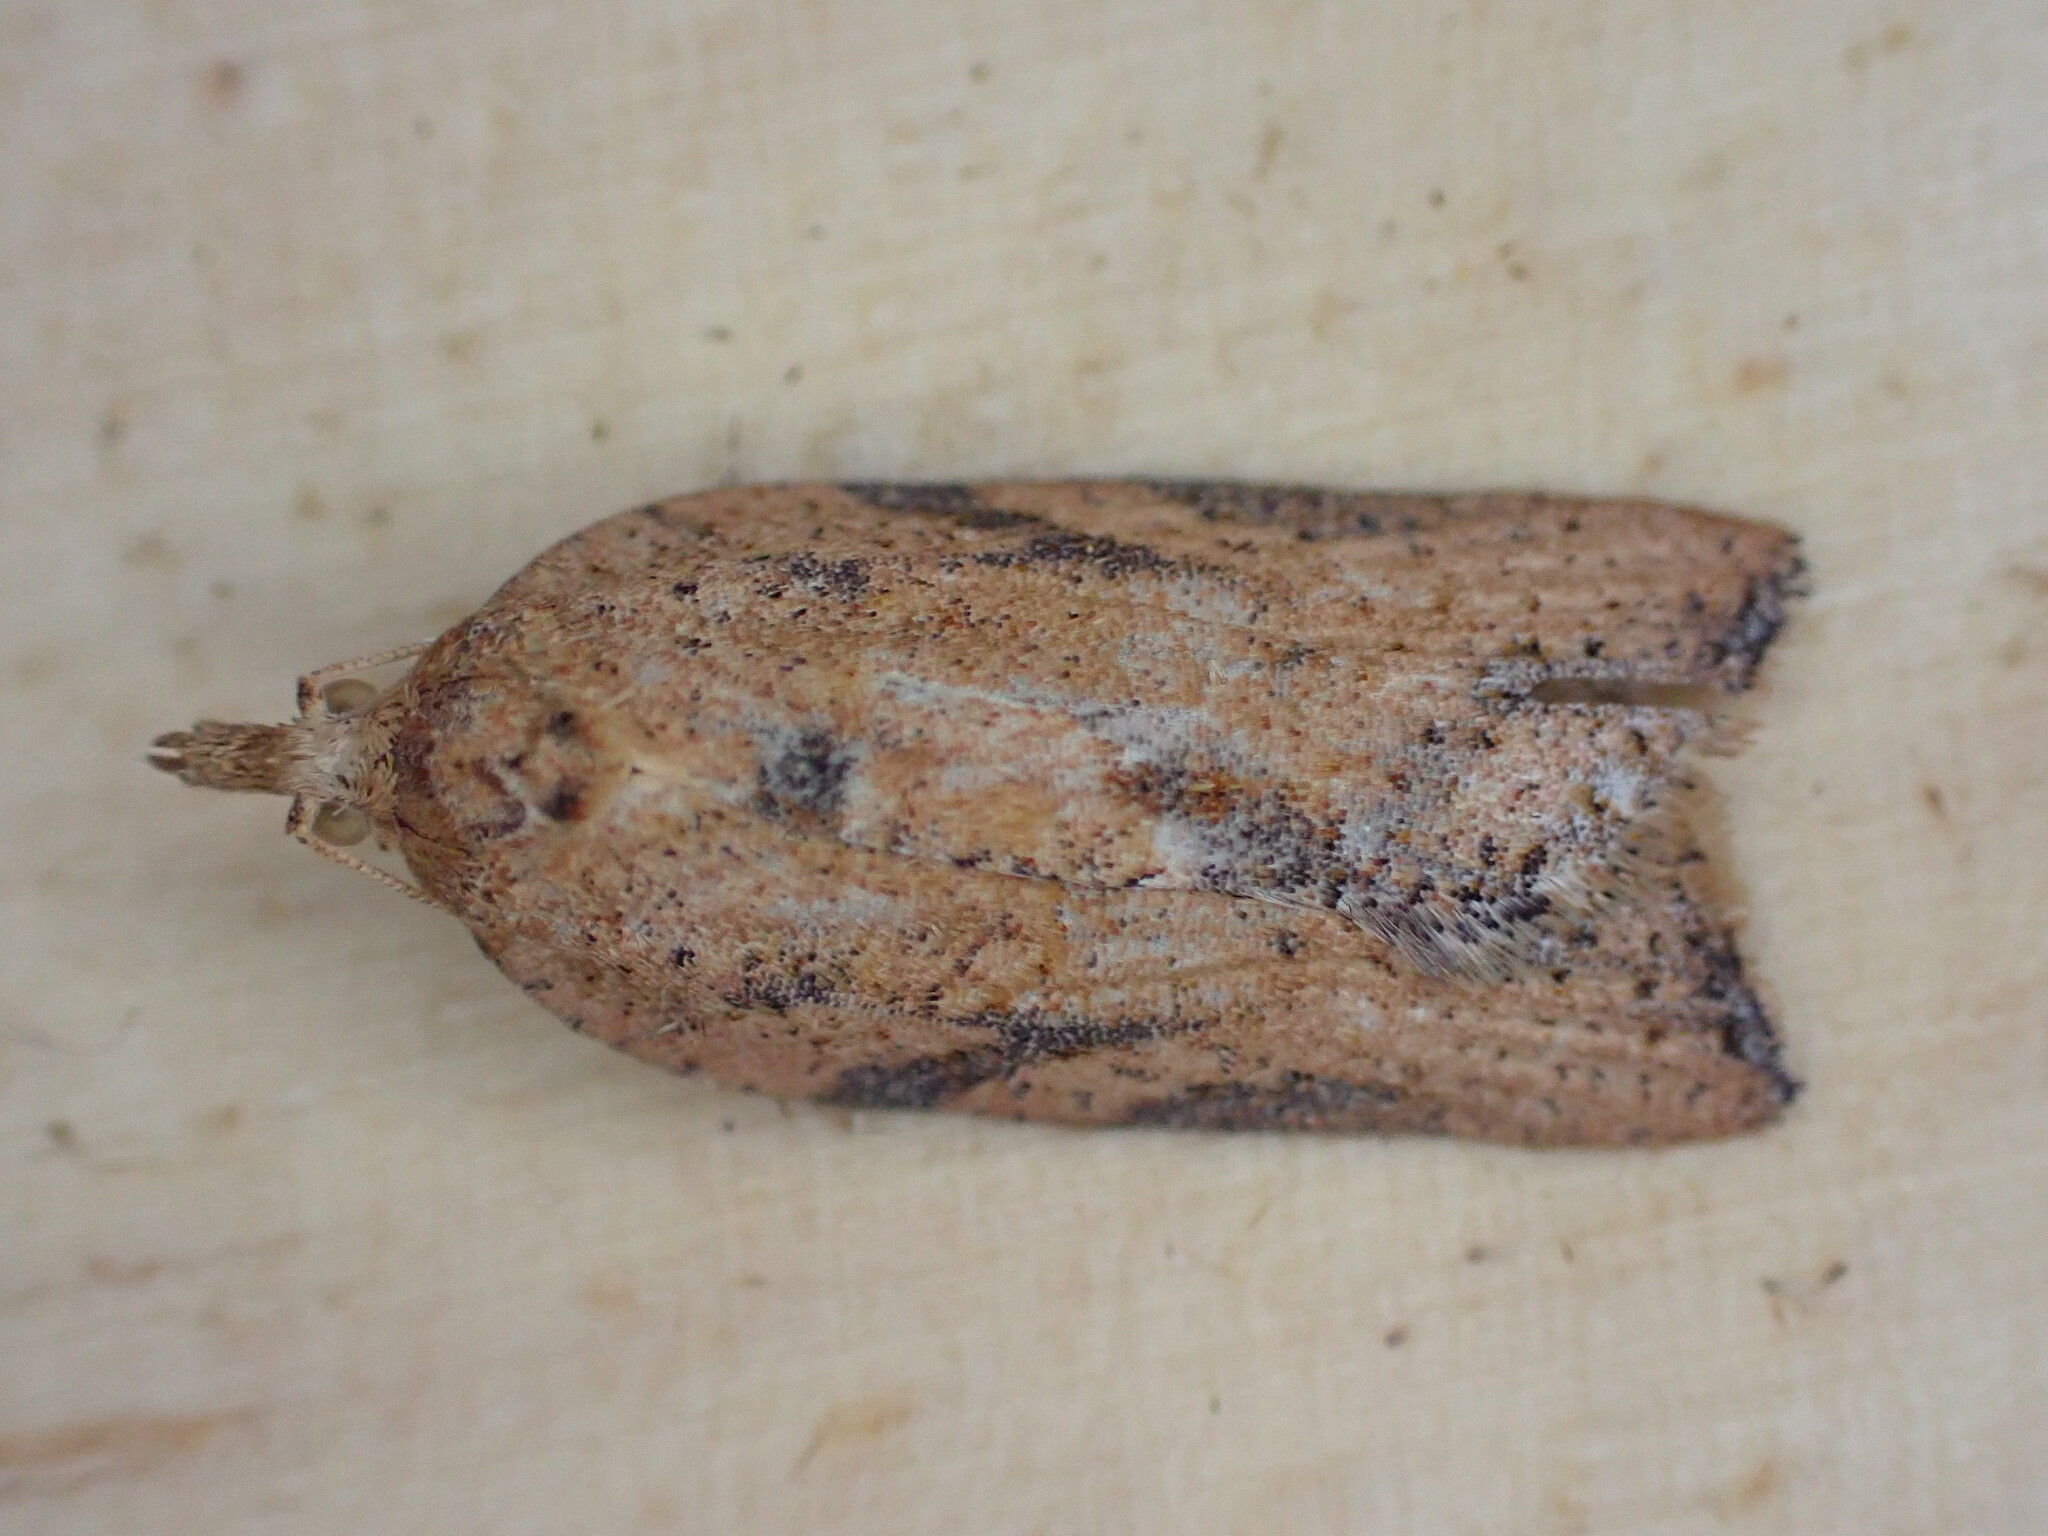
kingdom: Animalia
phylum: Arthropoda
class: Insecta
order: Lepidoptera
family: Tortricidae
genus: Epiphyas
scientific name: Epiphyas postvittana
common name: Light brown apple moth
